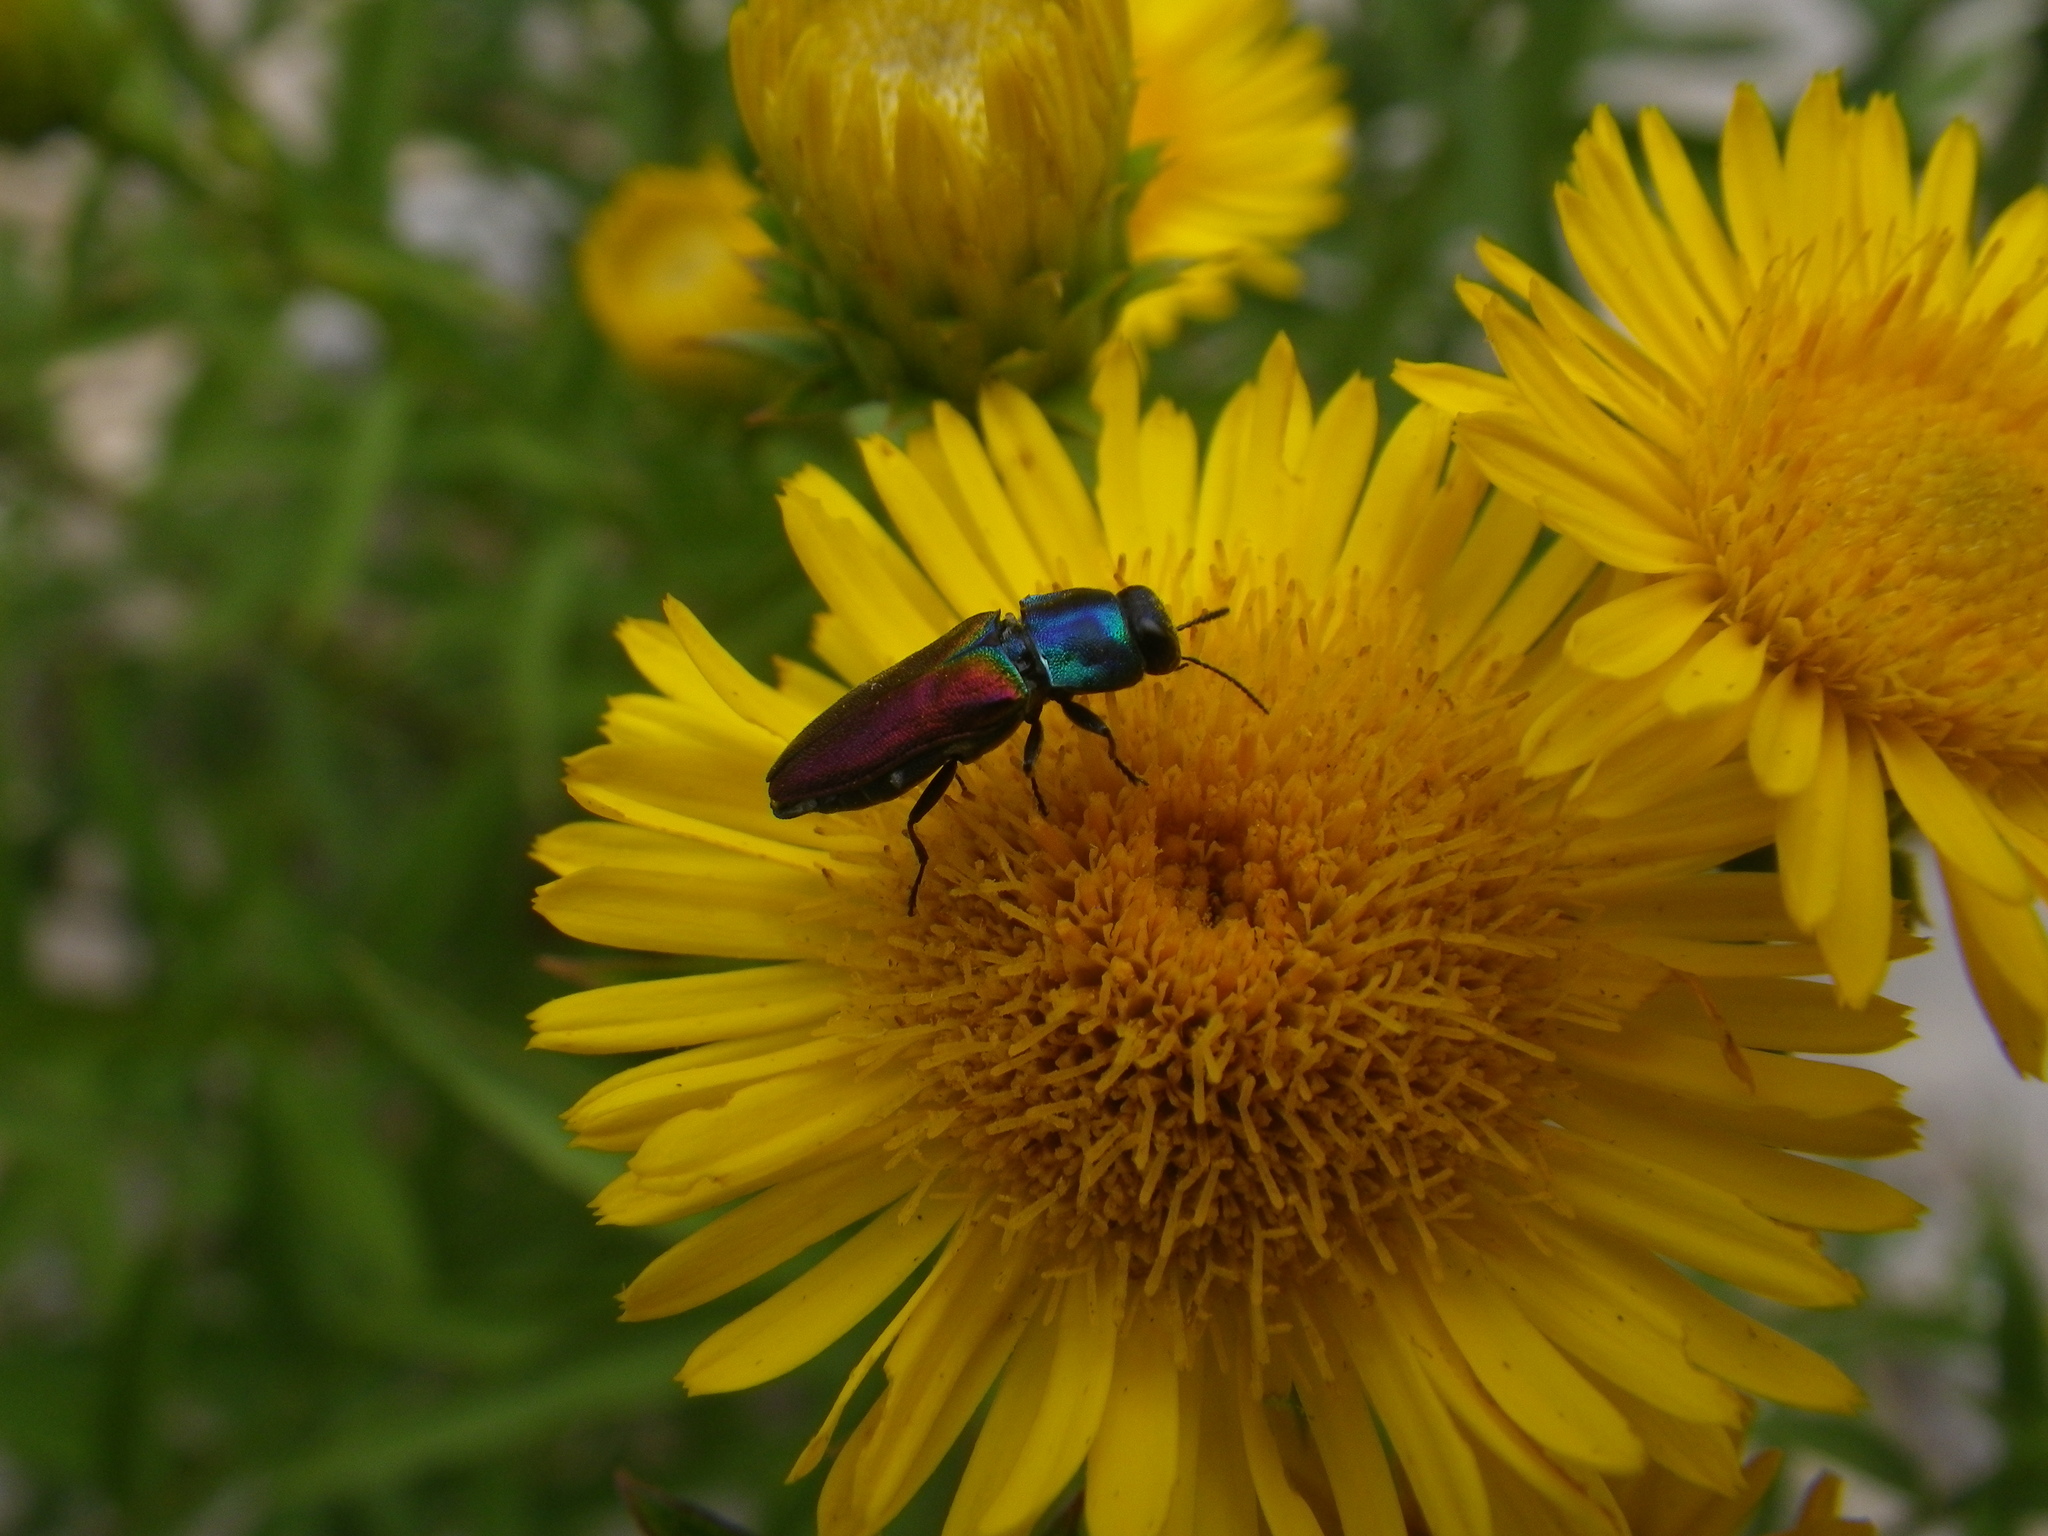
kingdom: Animalia
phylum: Arthropoda
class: Insecta
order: Coleoptera
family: Buprestidae
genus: Anthaxia
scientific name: Anthaxia ignipennis
